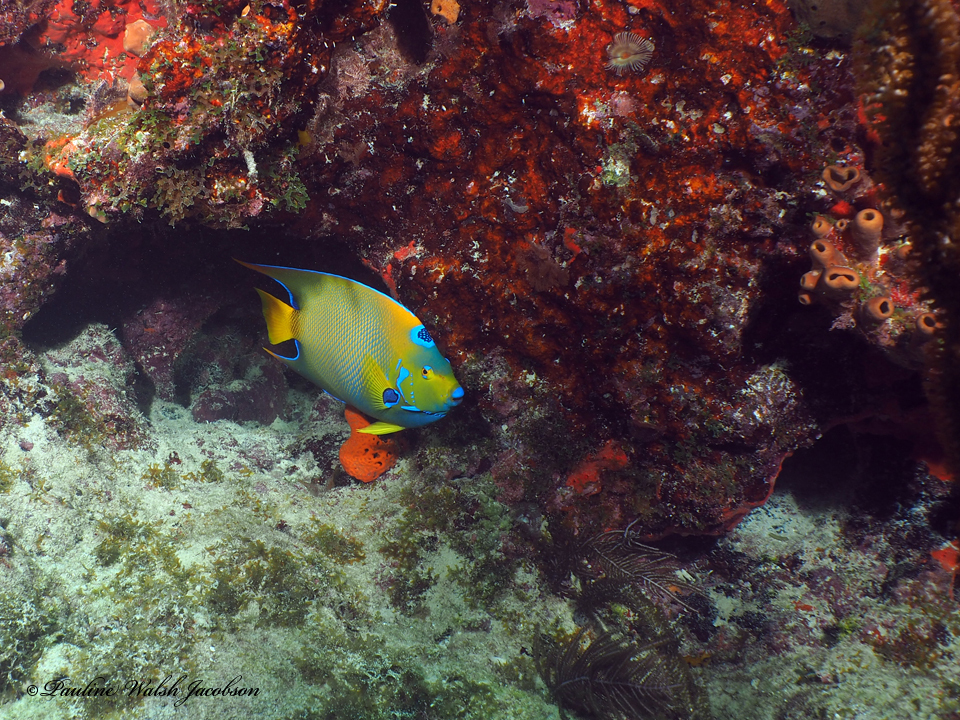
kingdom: Animalia
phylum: Chordata
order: Perciformes
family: Pomacanthidae
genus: Holacanthus
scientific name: Holacanthus ciliaris
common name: Queen angelfish
